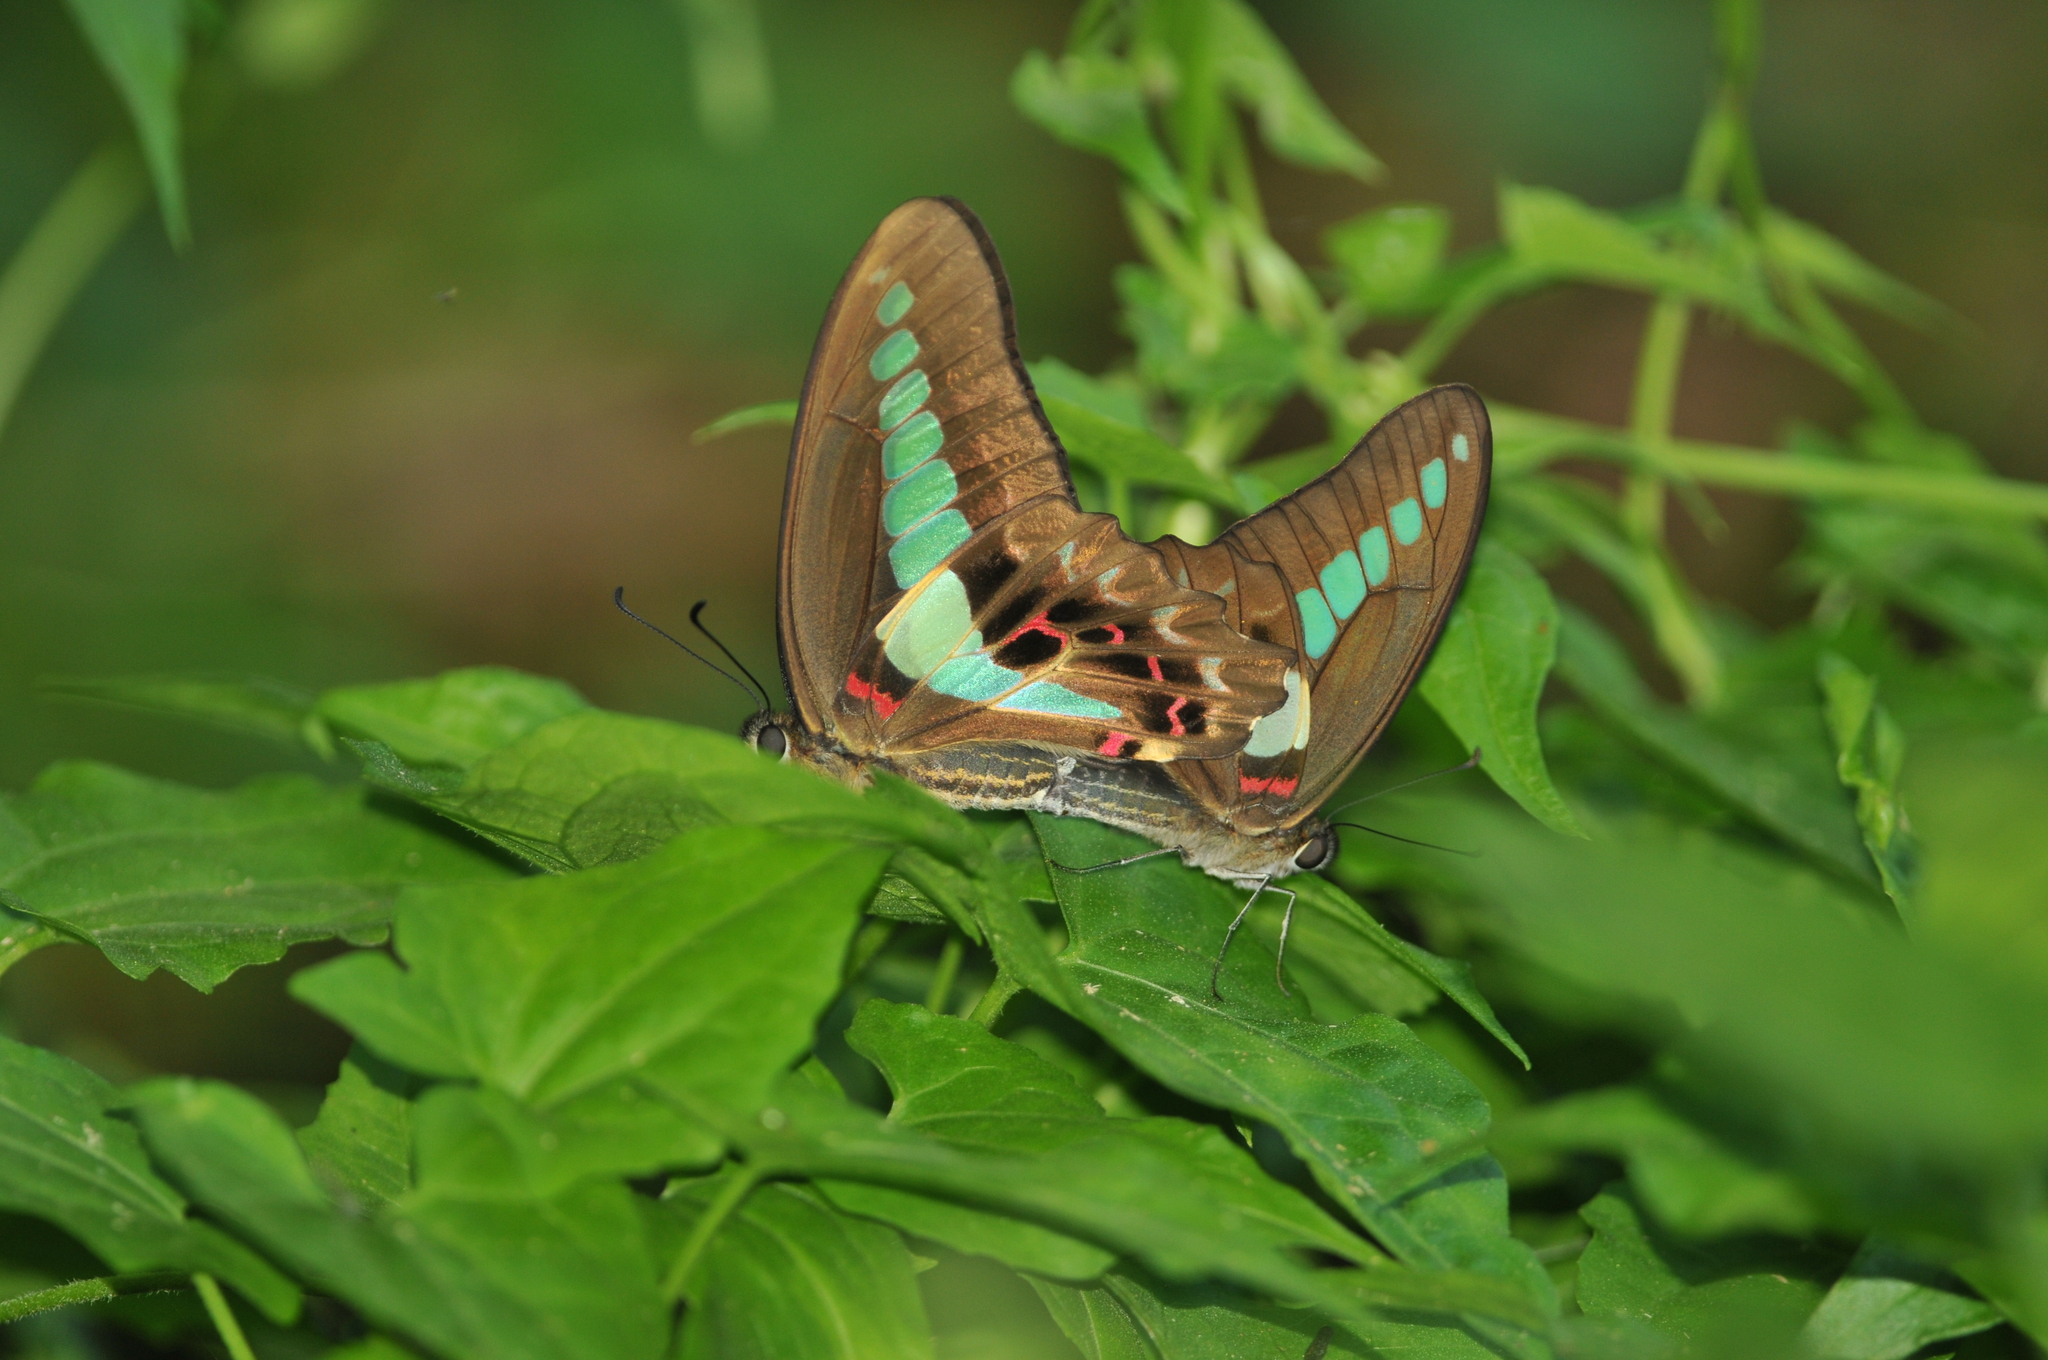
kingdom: Fungi
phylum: Ascomycota
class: Sordariomycetes
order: Microascales
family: Microascaceae
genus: Graphium
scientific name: Graphium sarpedon
